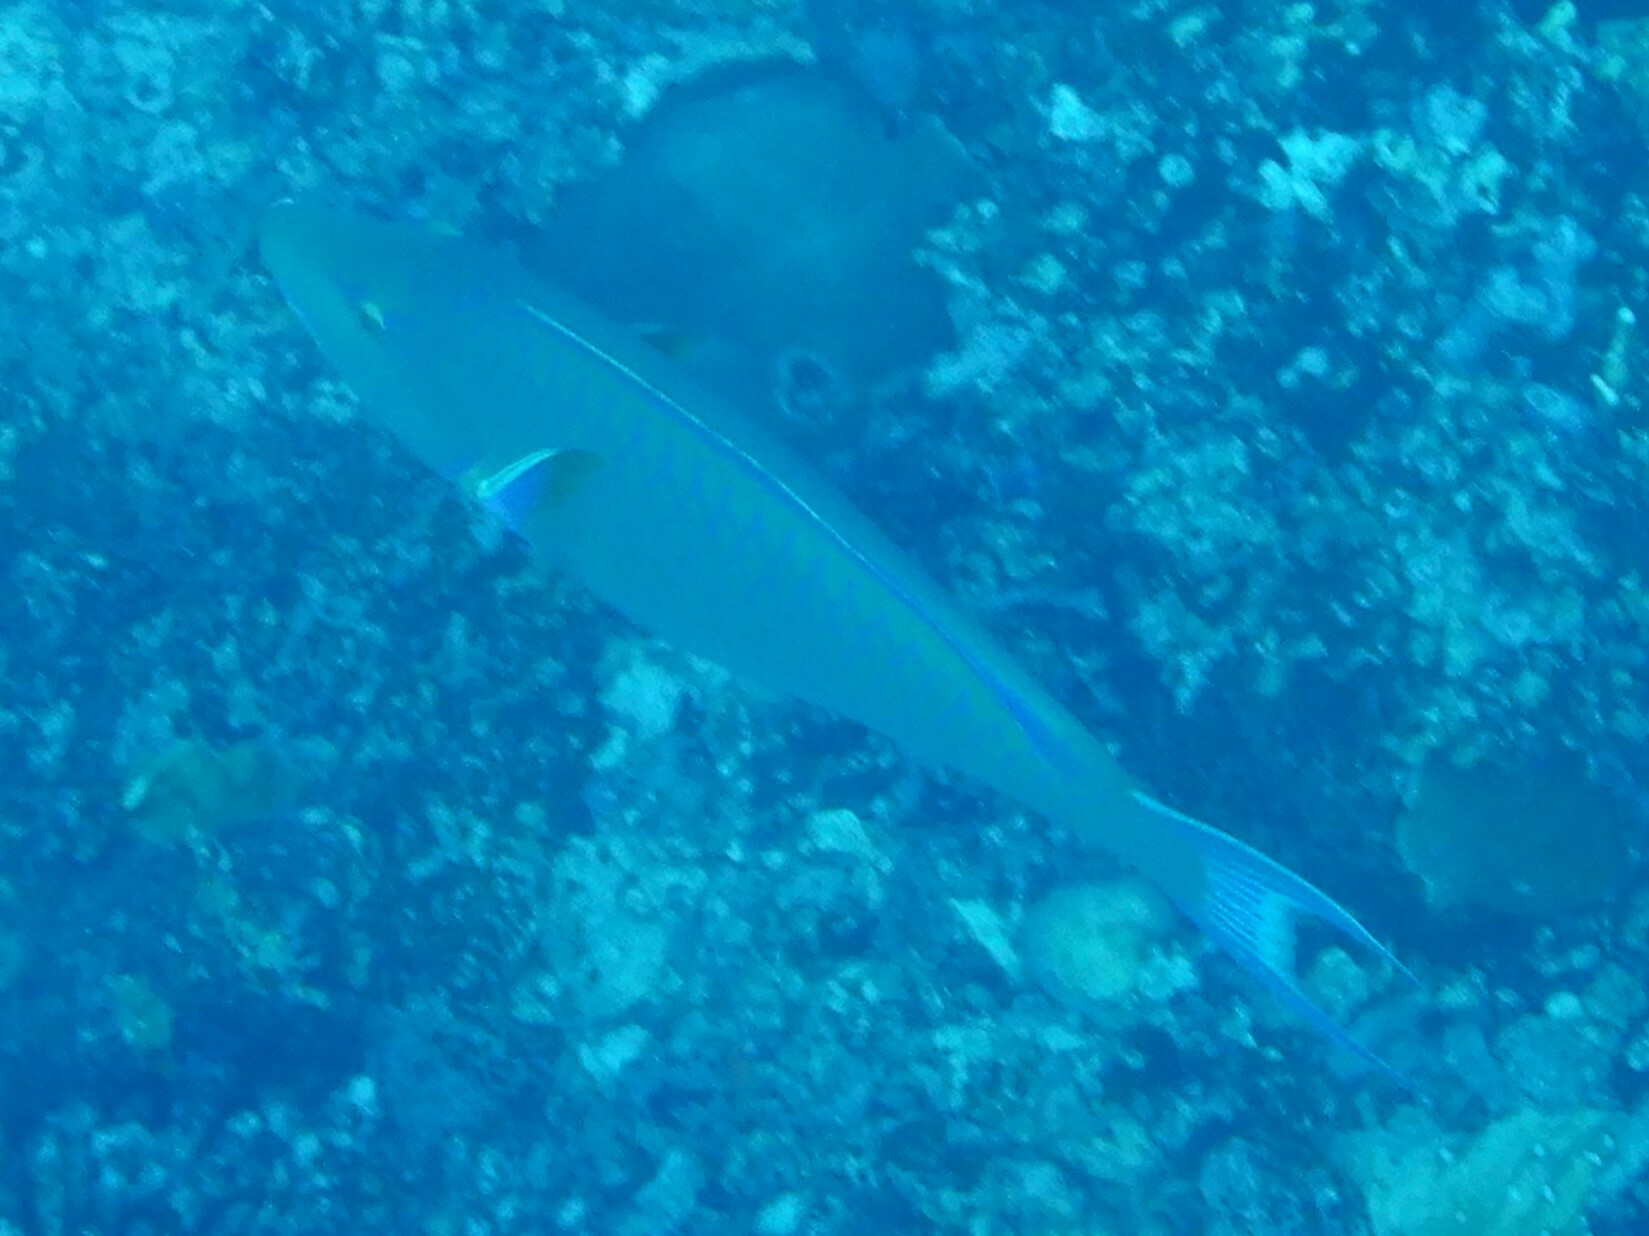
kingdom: Animalia
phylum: Chordata
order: Perciformes
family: Scaridae
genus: Hipposcarus
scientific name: Hipposcarus harid
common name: Candelamoa parrotfish
